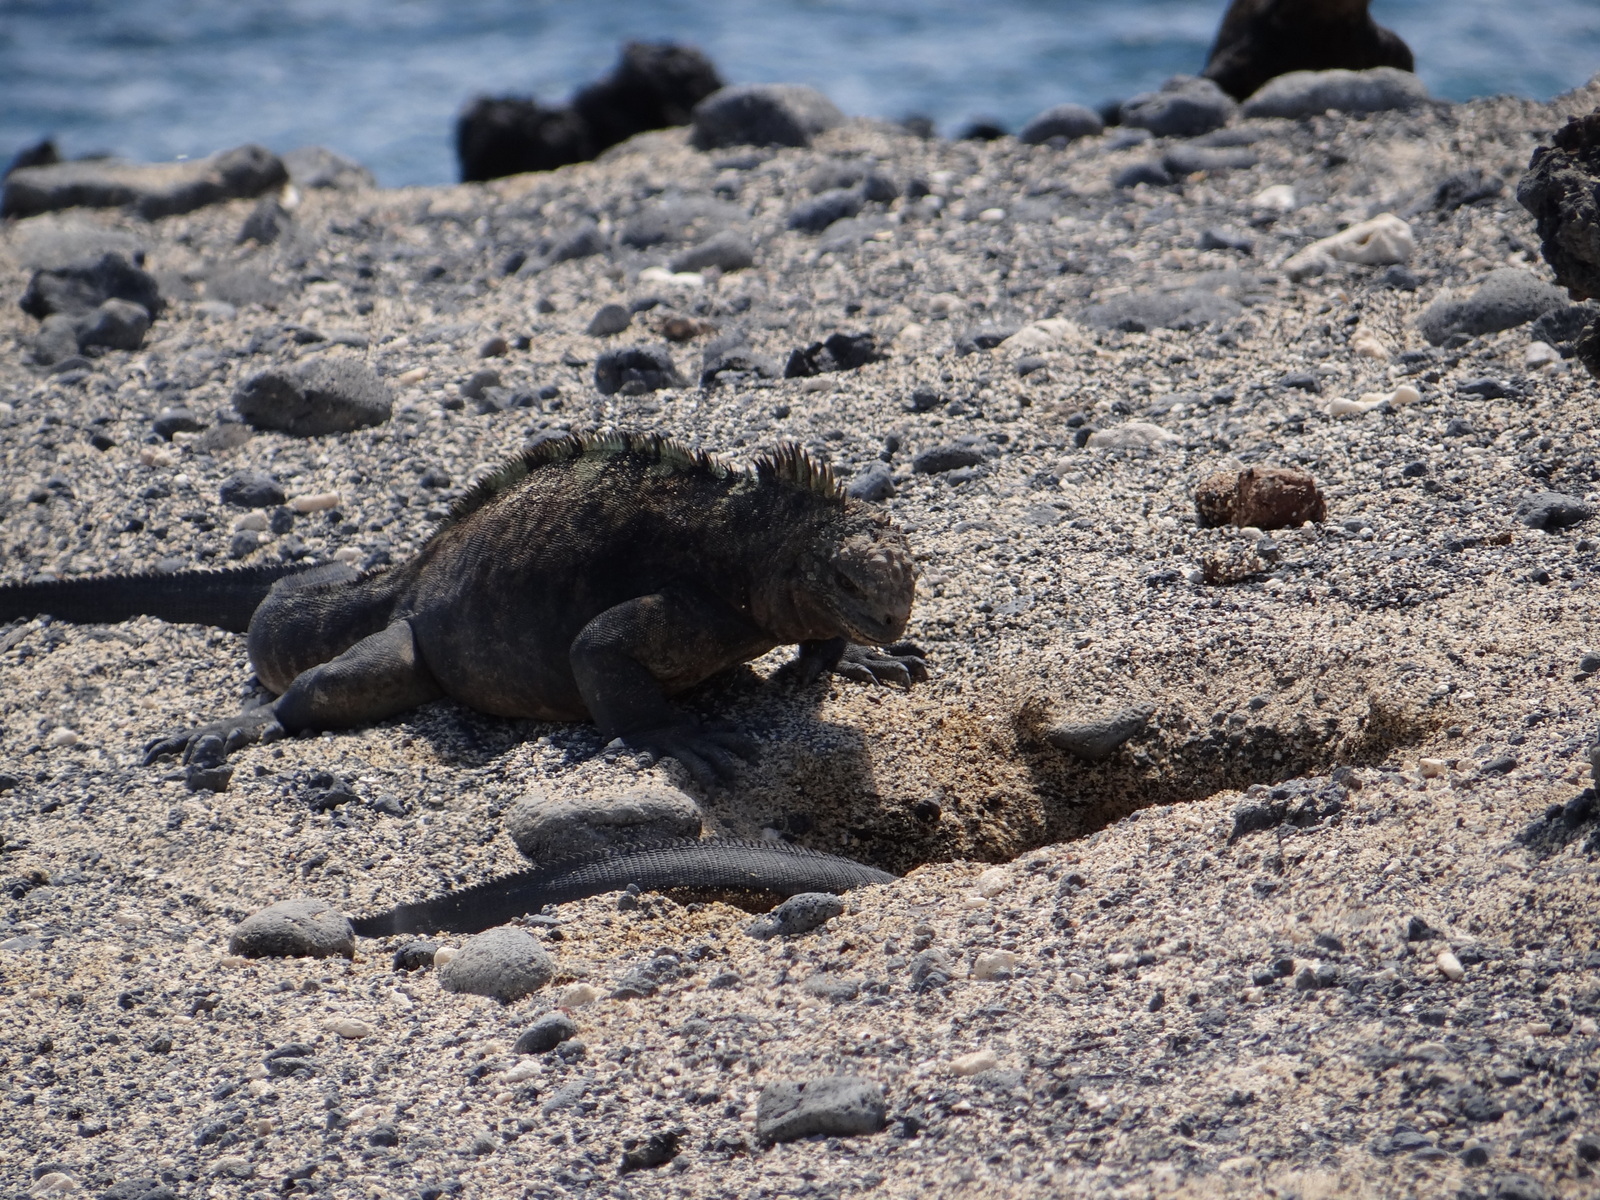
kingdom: Animalia
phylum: Chordata
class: Squamata
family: Iguanidae
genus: Amblyrhynchus
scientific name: Amblyrhynchus cristatus
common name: Marine iguana
